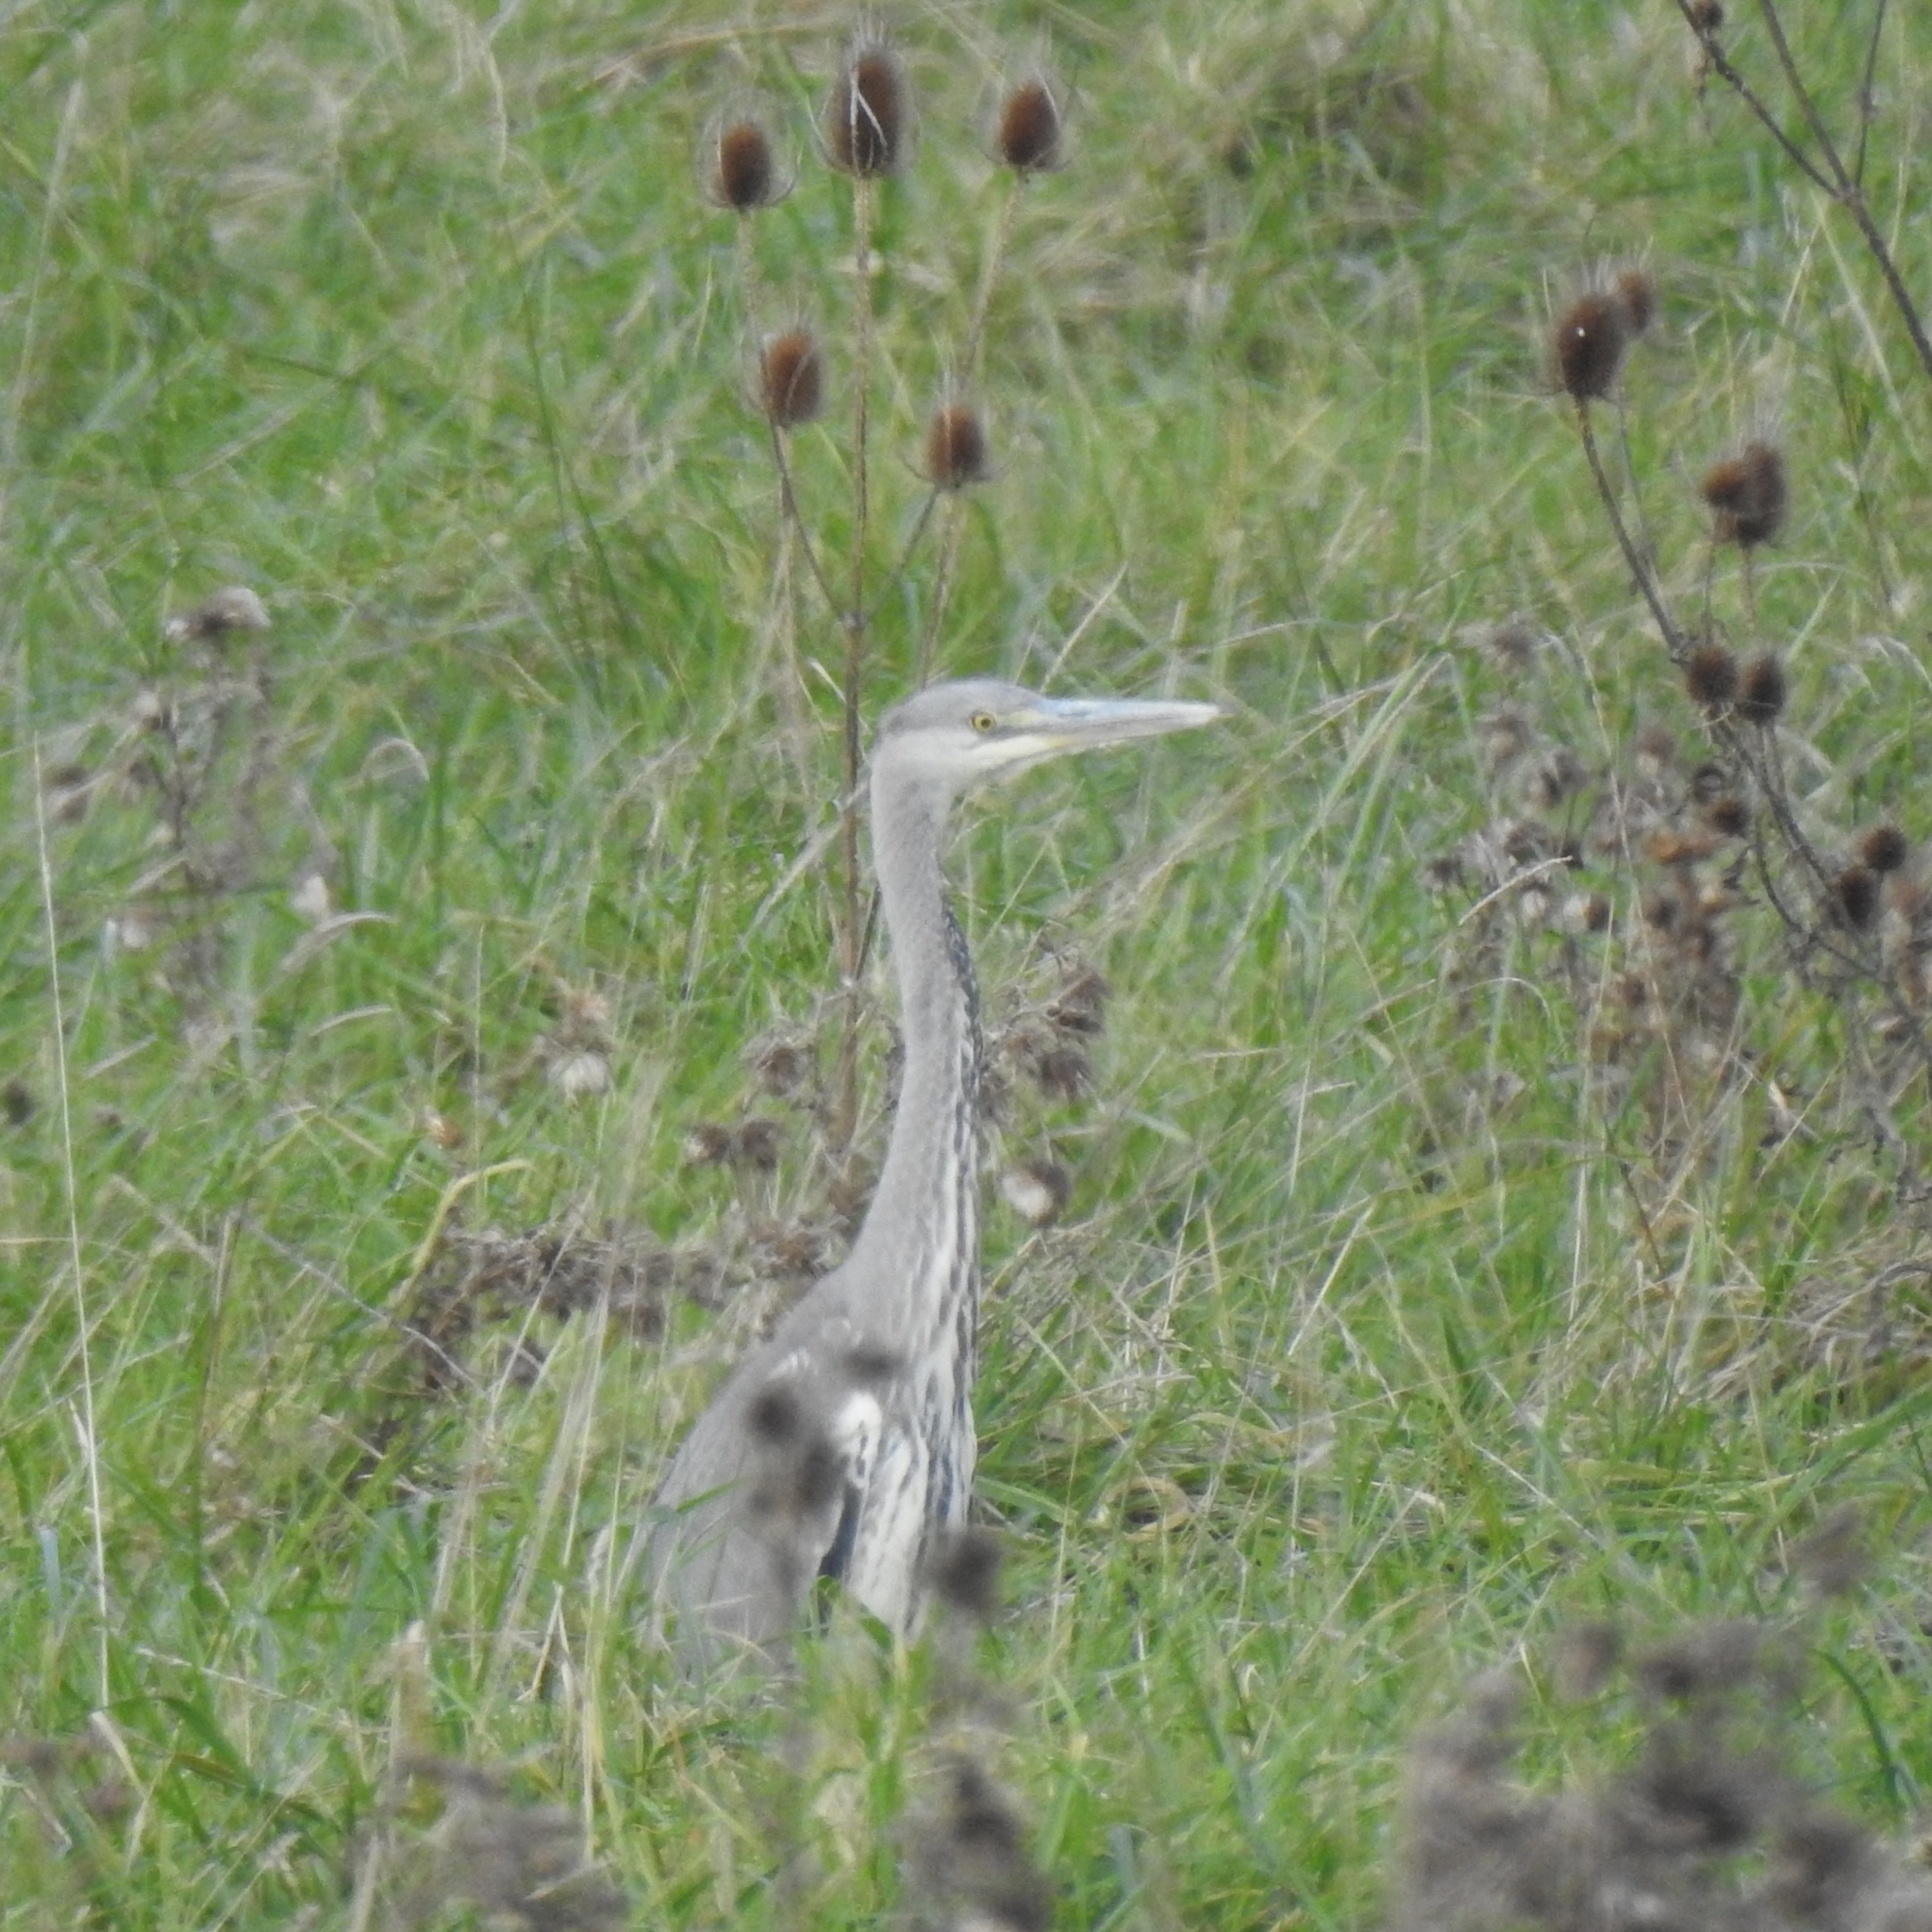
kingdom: Animalia
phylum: Chordata
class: Aves
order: Pelecaniformes
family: Ardeidae
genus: Ardea
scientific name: Ardea cinerea
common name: Grey heron
